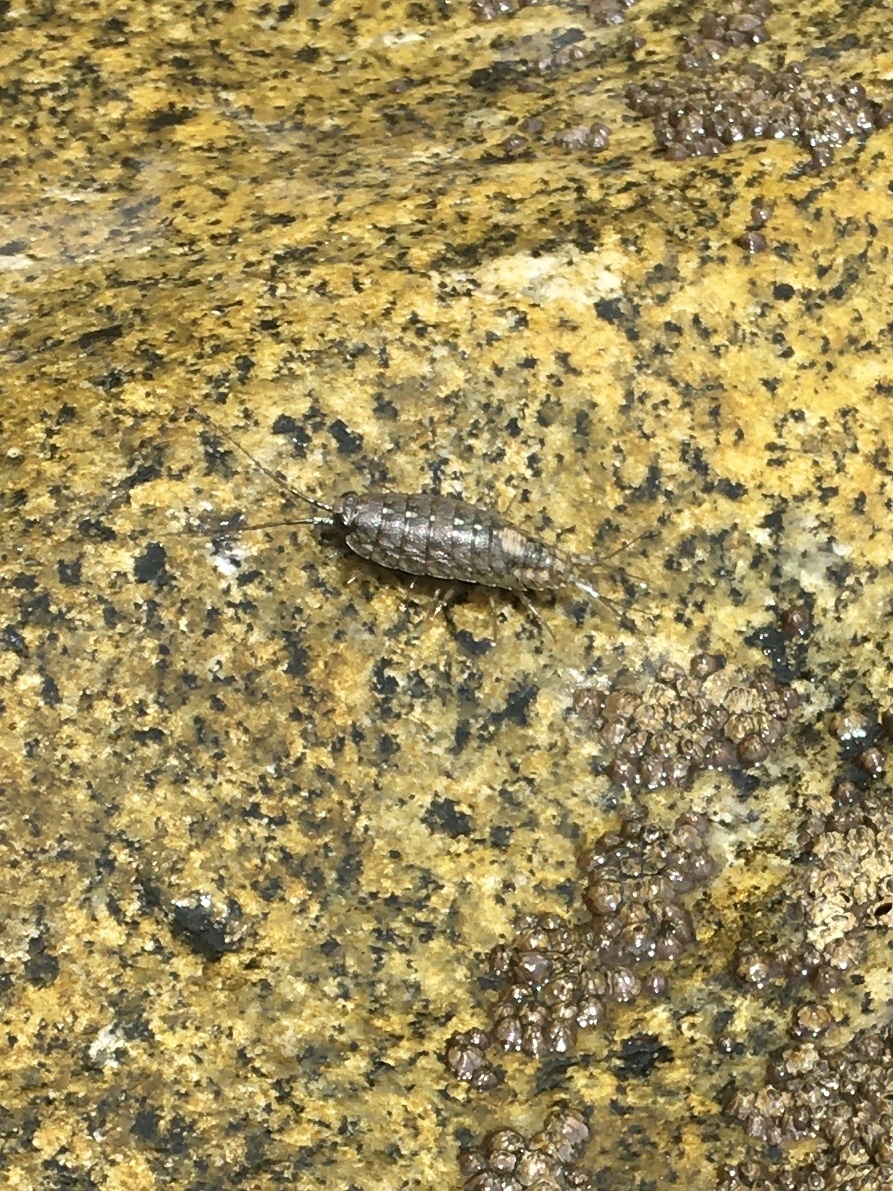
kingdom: Animalia
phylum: Arthropoda
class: Malacostraca
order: Isopoda
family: Ligiidae
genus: Ligia
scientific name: Ligia occidentalis
